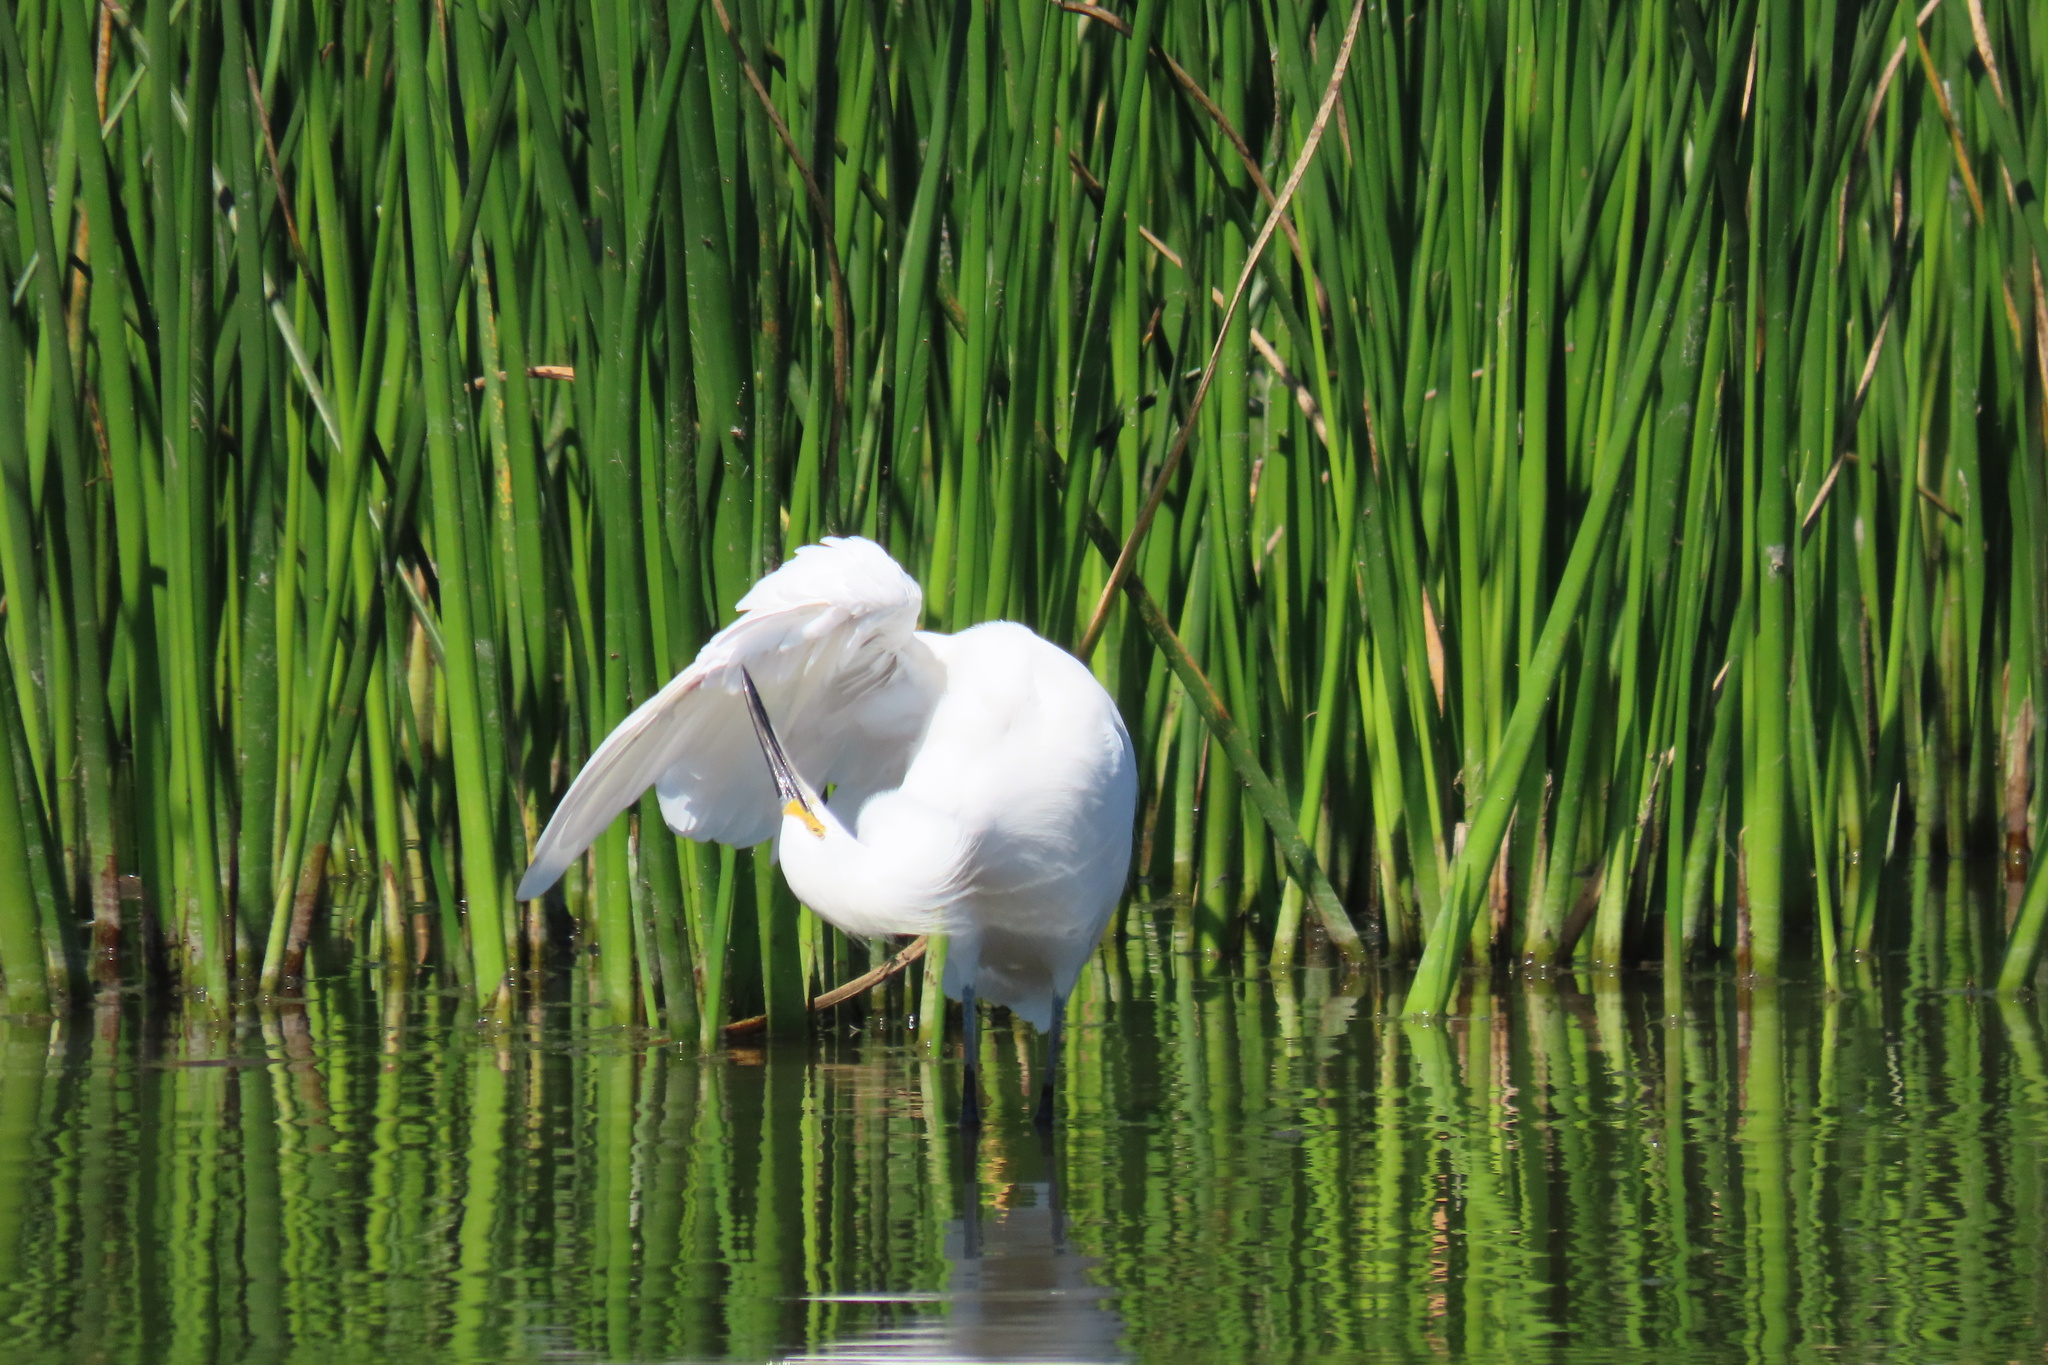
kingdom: Animalia
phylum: Chordata
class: Aves
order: Pelecaniformes
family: Ardeidae
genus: Egretta
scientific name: Egretta thula
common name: Snowy egret
